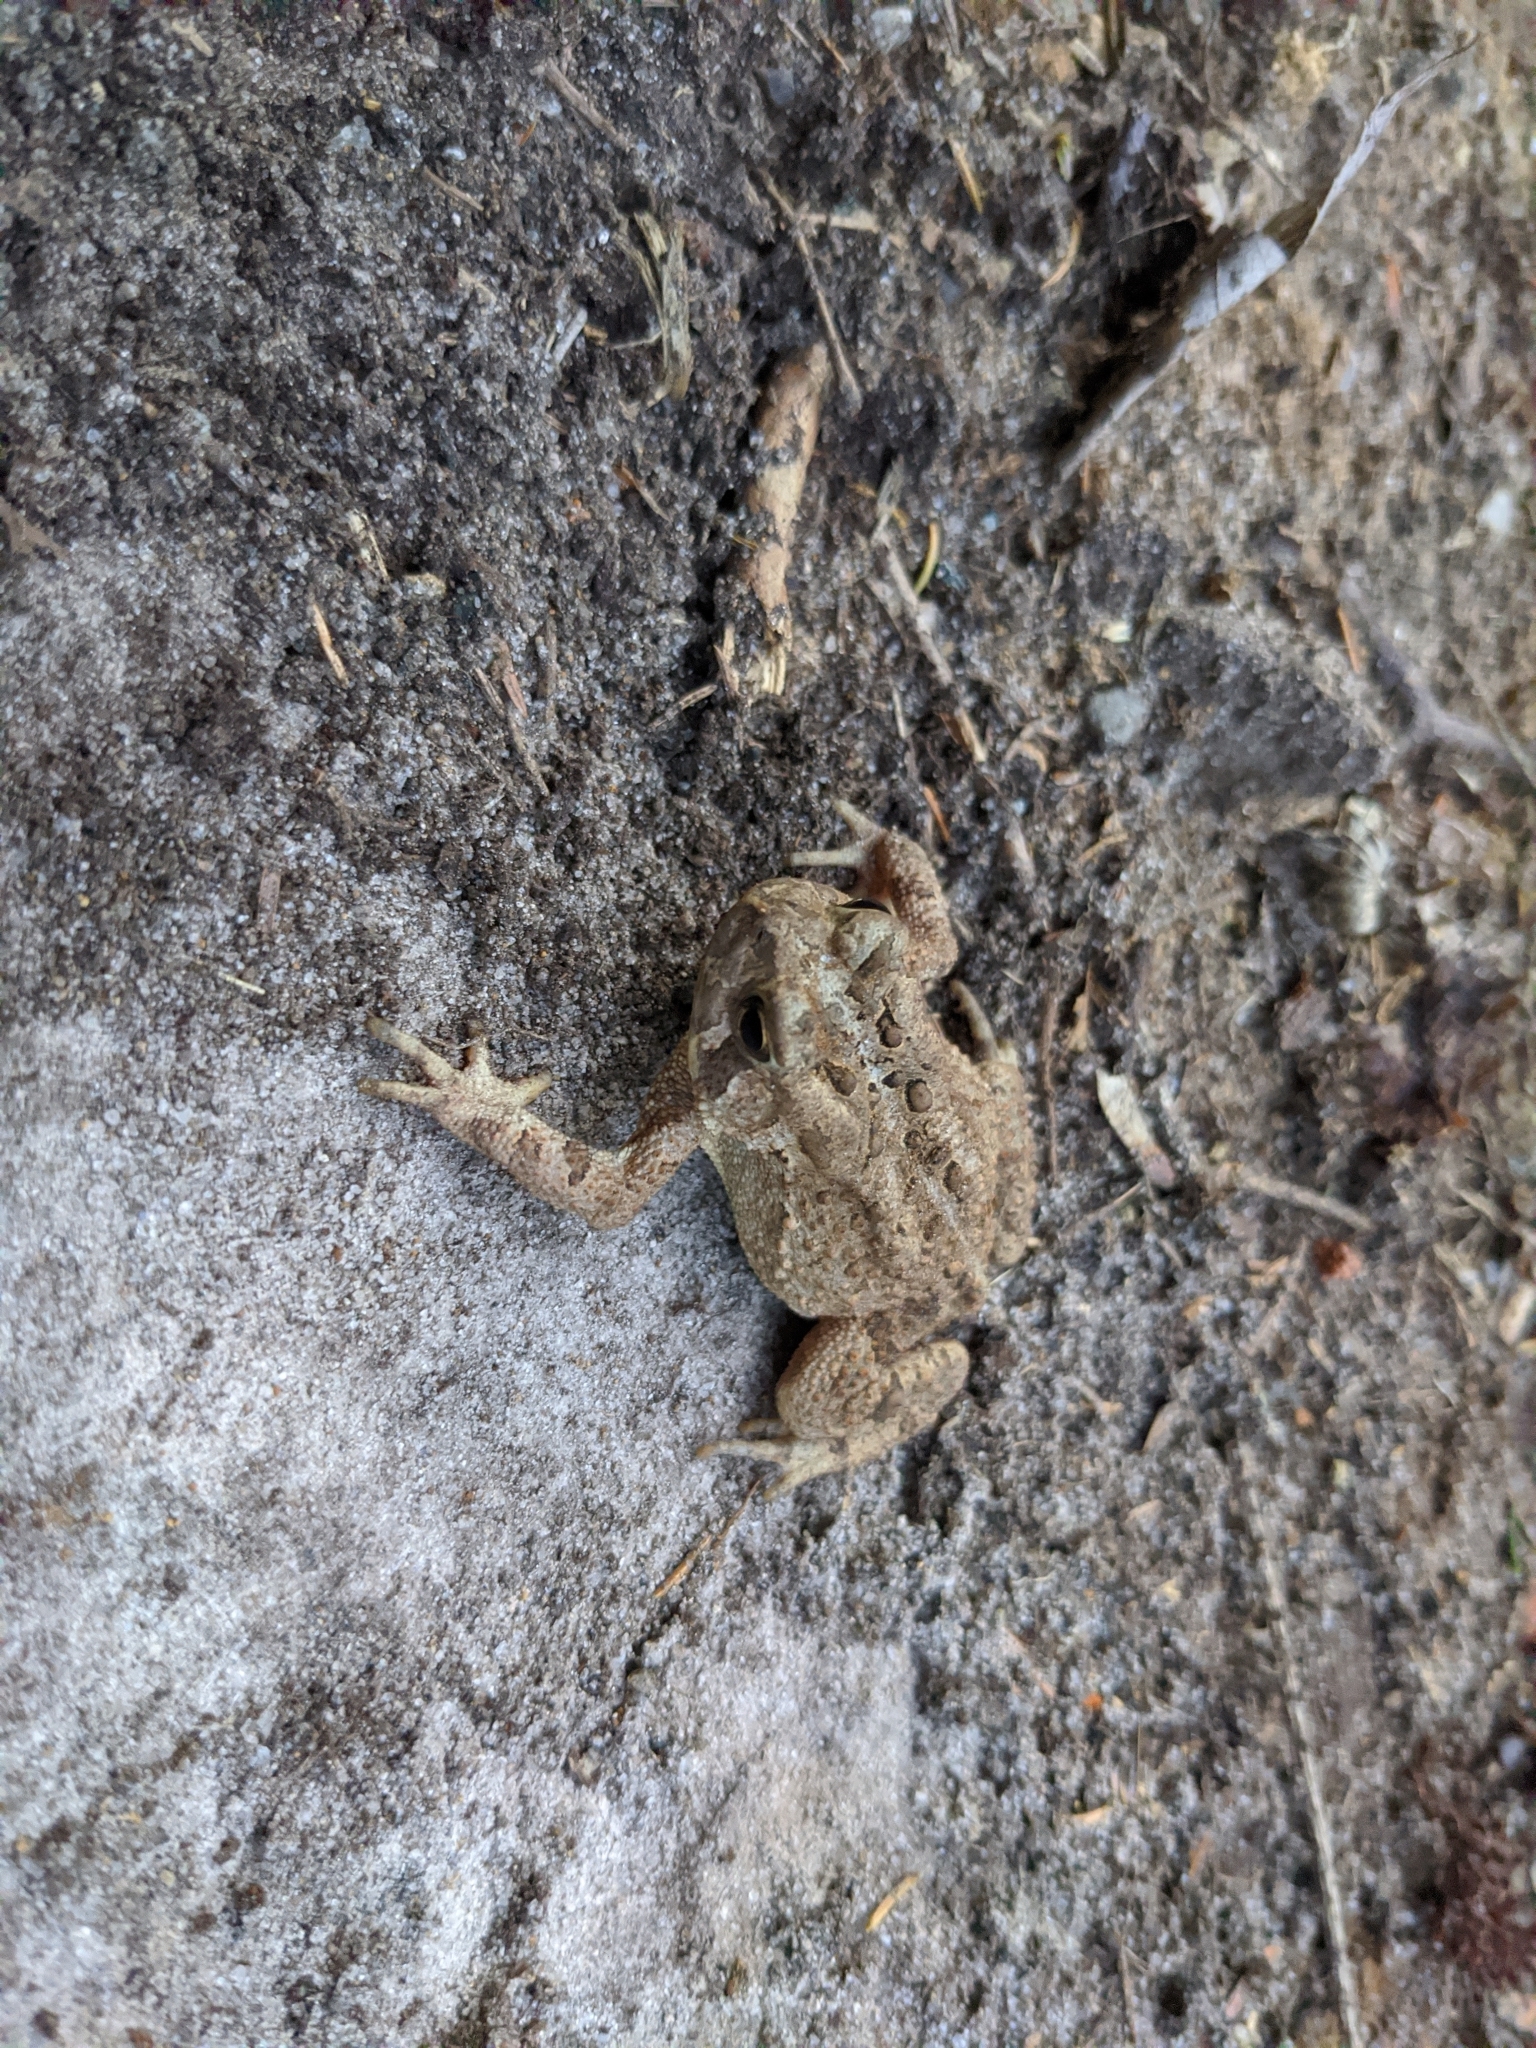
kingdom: Animalia
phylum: Chordata
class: Amphibia
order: Anura
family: Bufonidae
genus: Anaxyrus
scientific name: Anaxyrus americanus
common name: American toad
